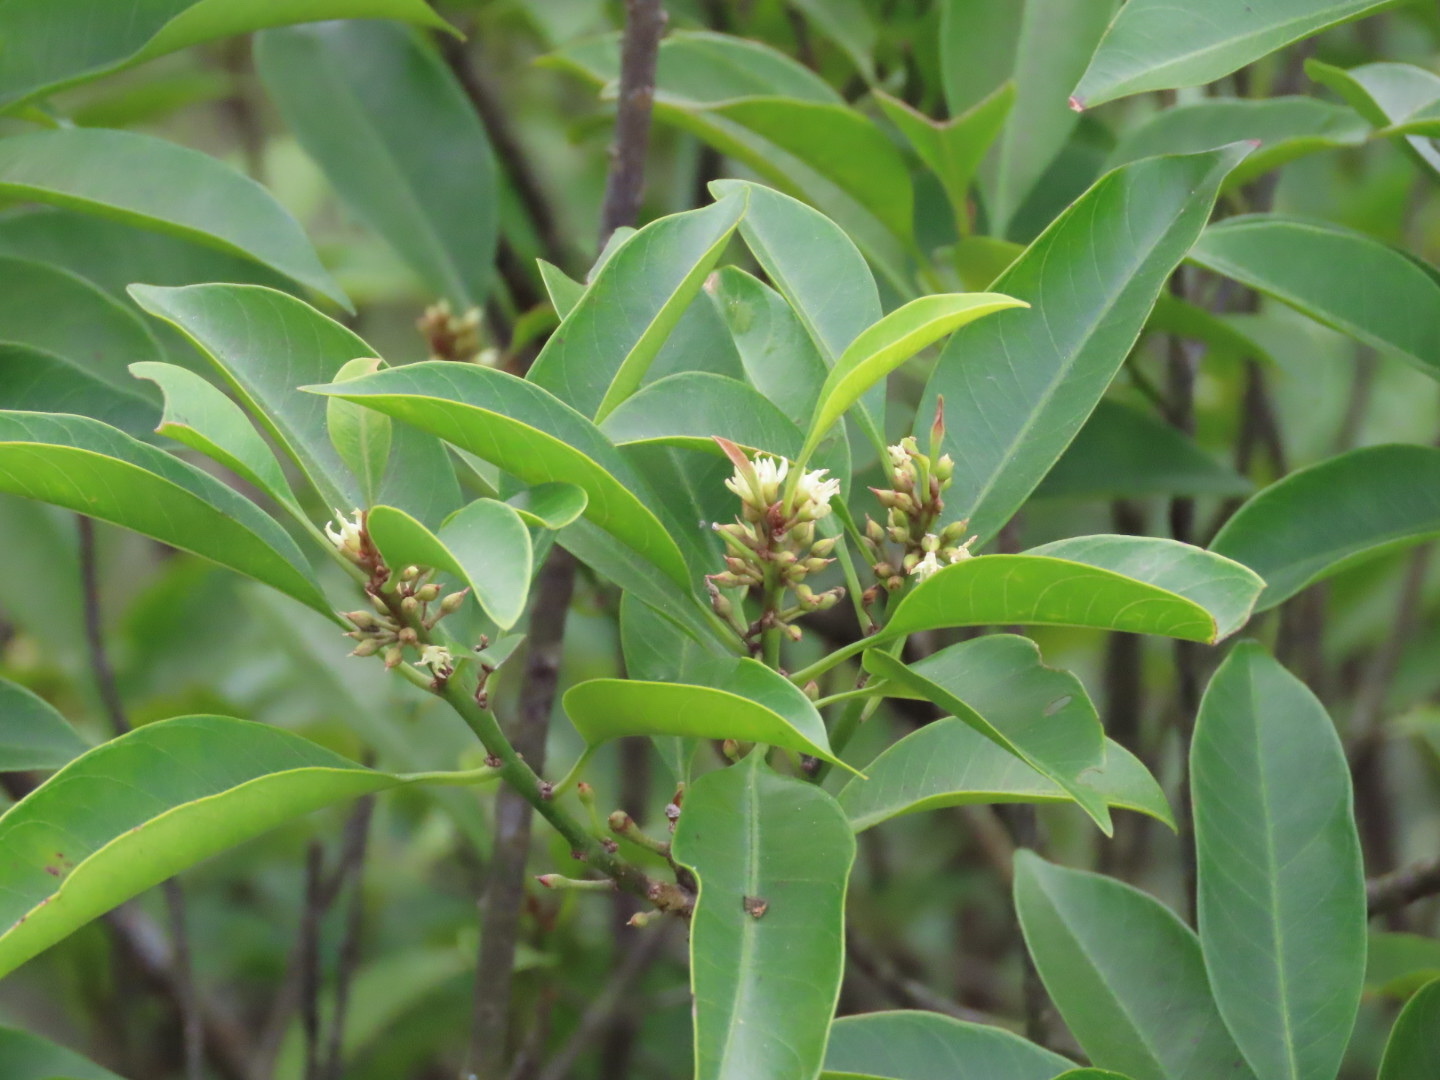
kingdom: Plantae
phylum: Tracheophyta
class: Magnoliopsida
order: Ericales
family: Sapotaceae
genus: Sideroxylon
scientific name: Sideroxylon wightianum
